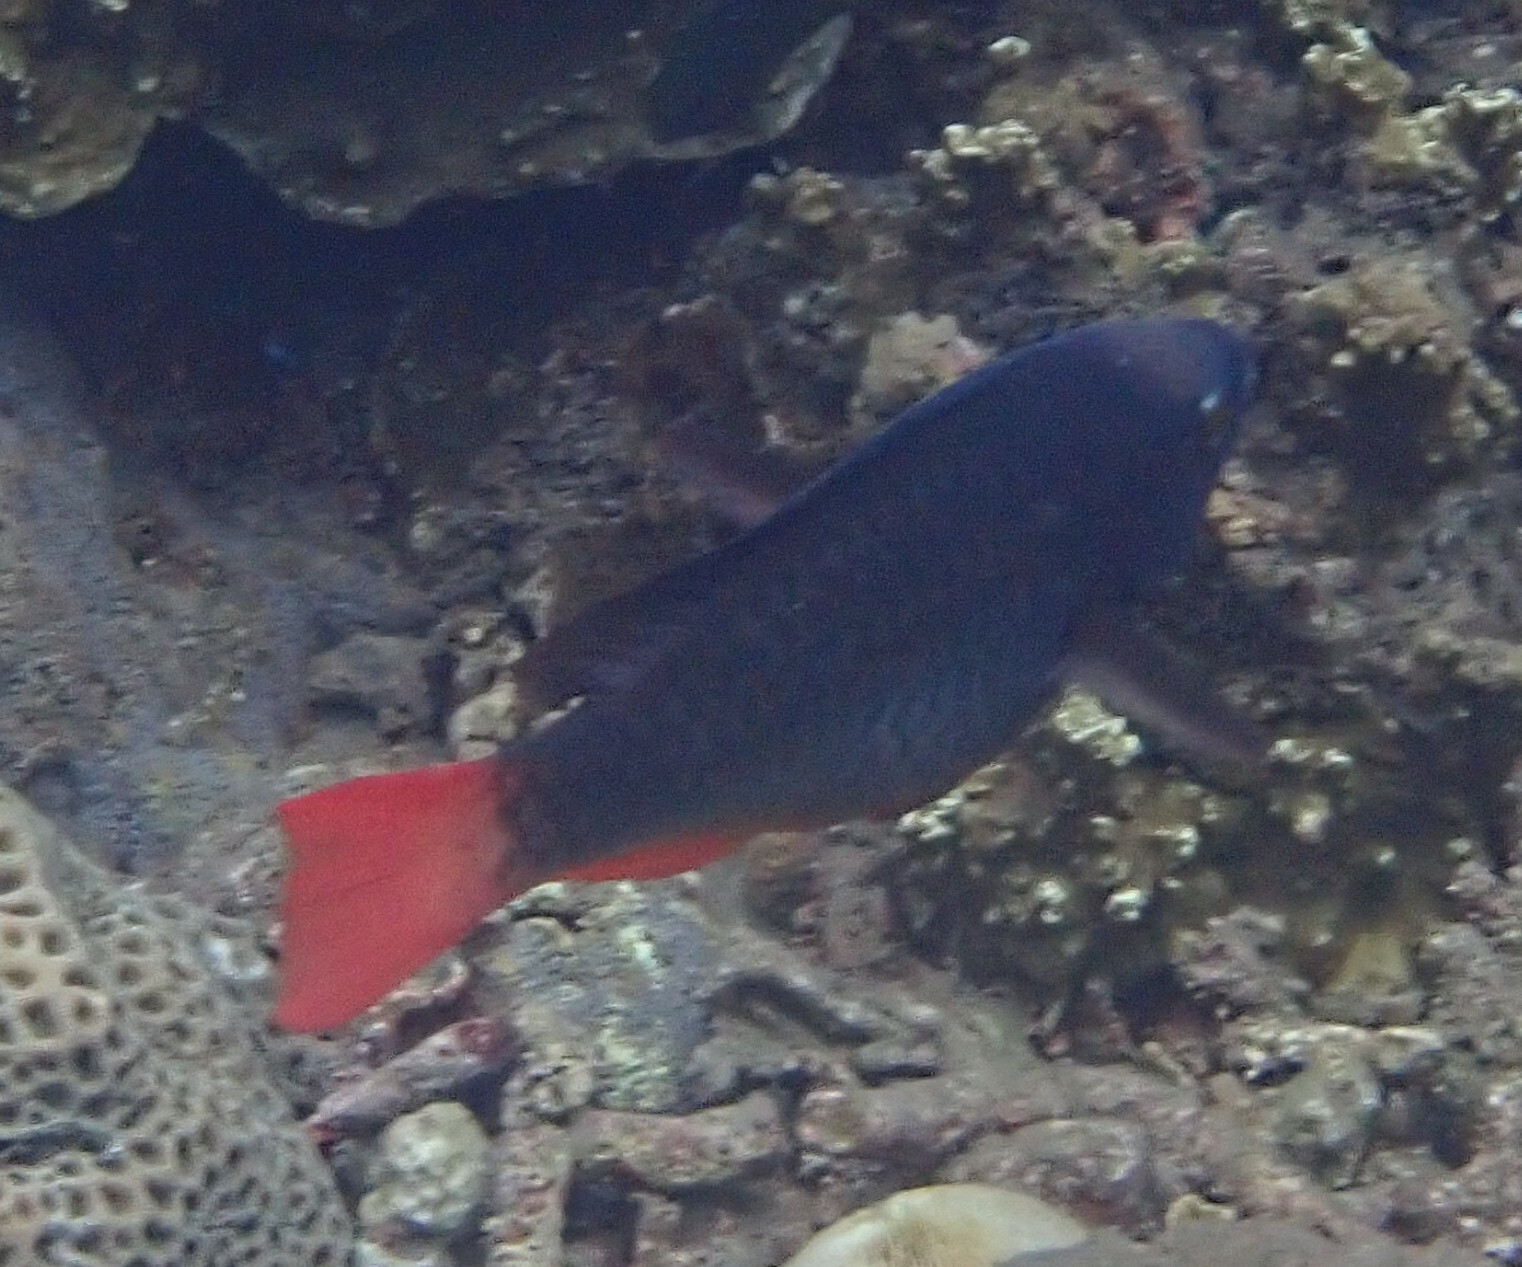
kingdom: Animalia
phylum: Chordata
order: Perciformes
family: Scaridae
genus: Scarus
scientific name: Scarus tricolor
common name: Tricolour parrotfish
